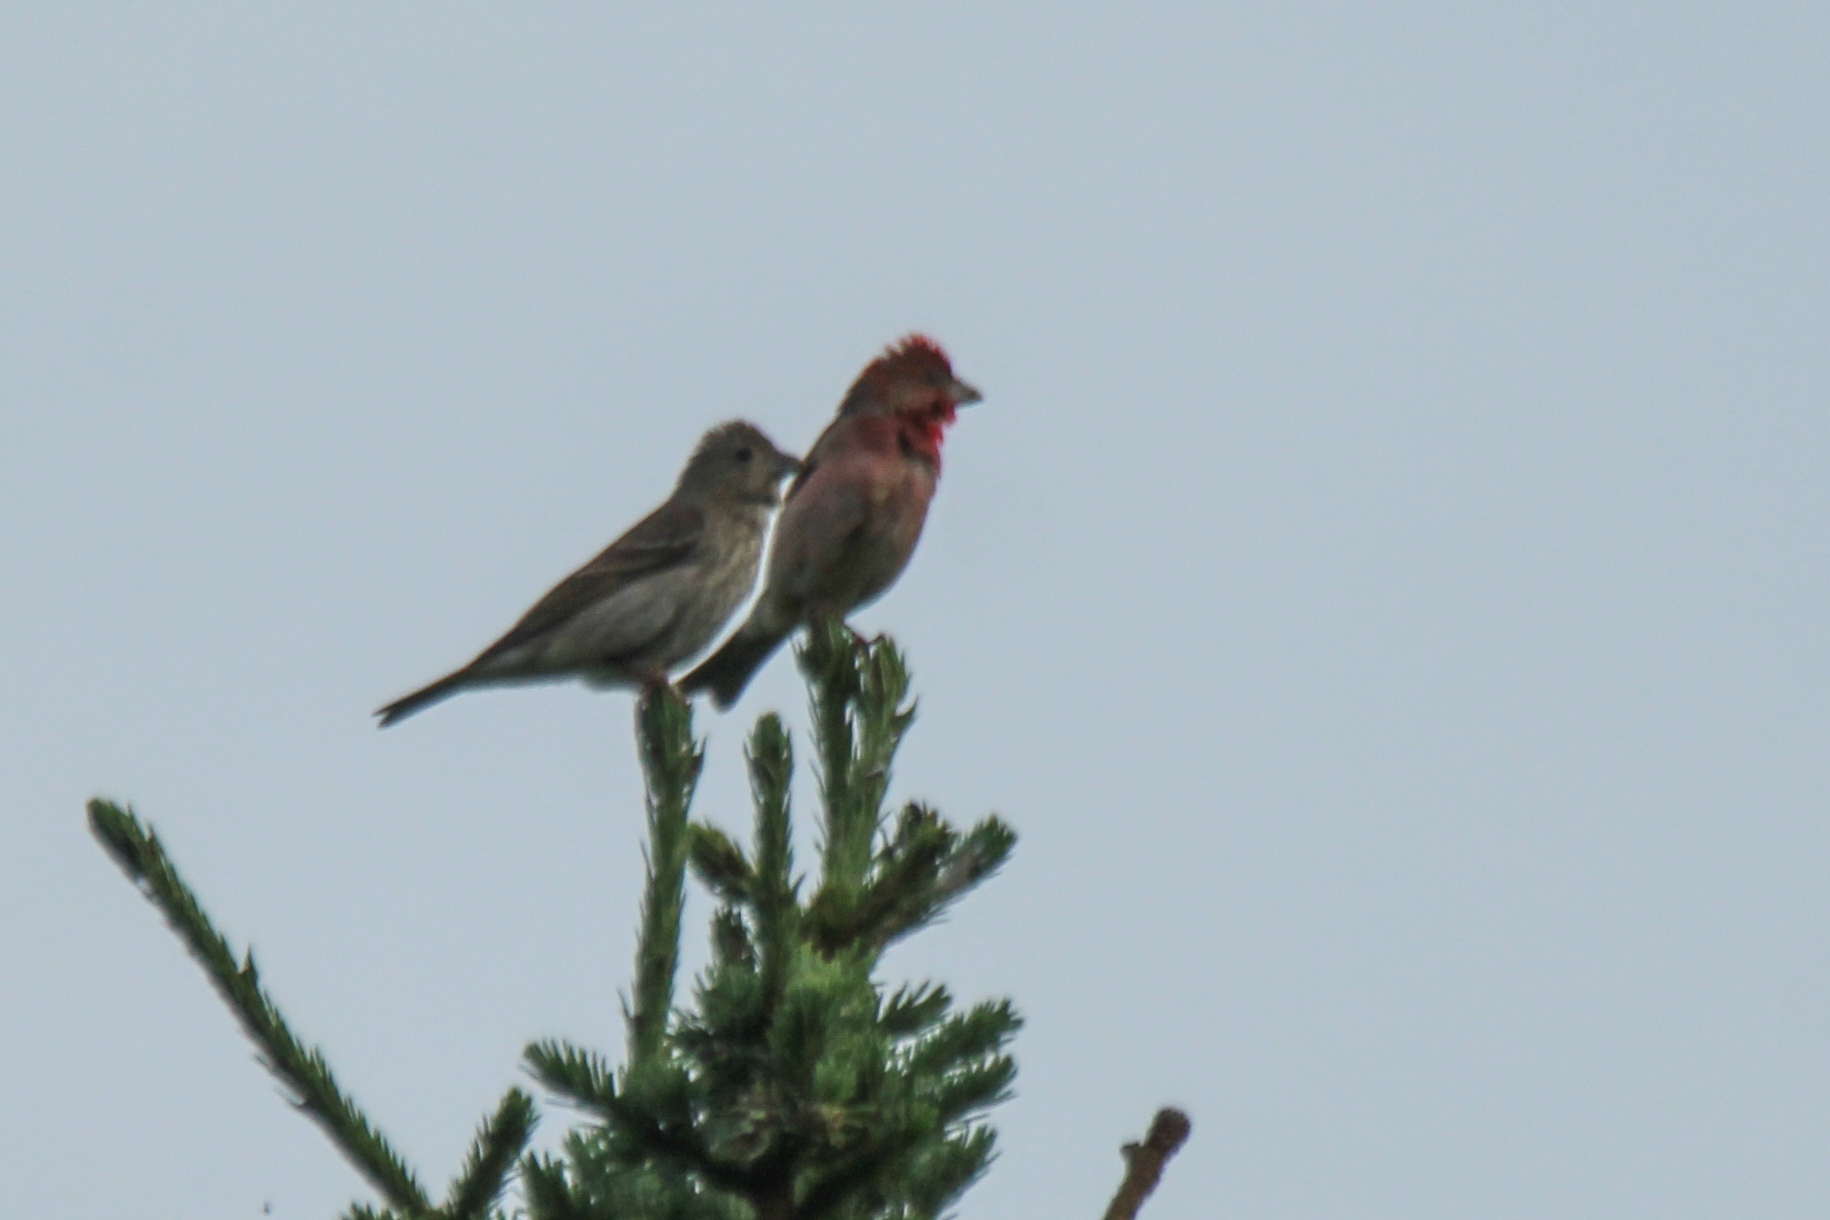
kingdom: Animalia
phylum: Chordata
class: Aves
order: Passeriformes
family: Fringillidae
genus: Carpodacus
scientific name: Carpodacus erythrinus
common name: Common rosefinch
